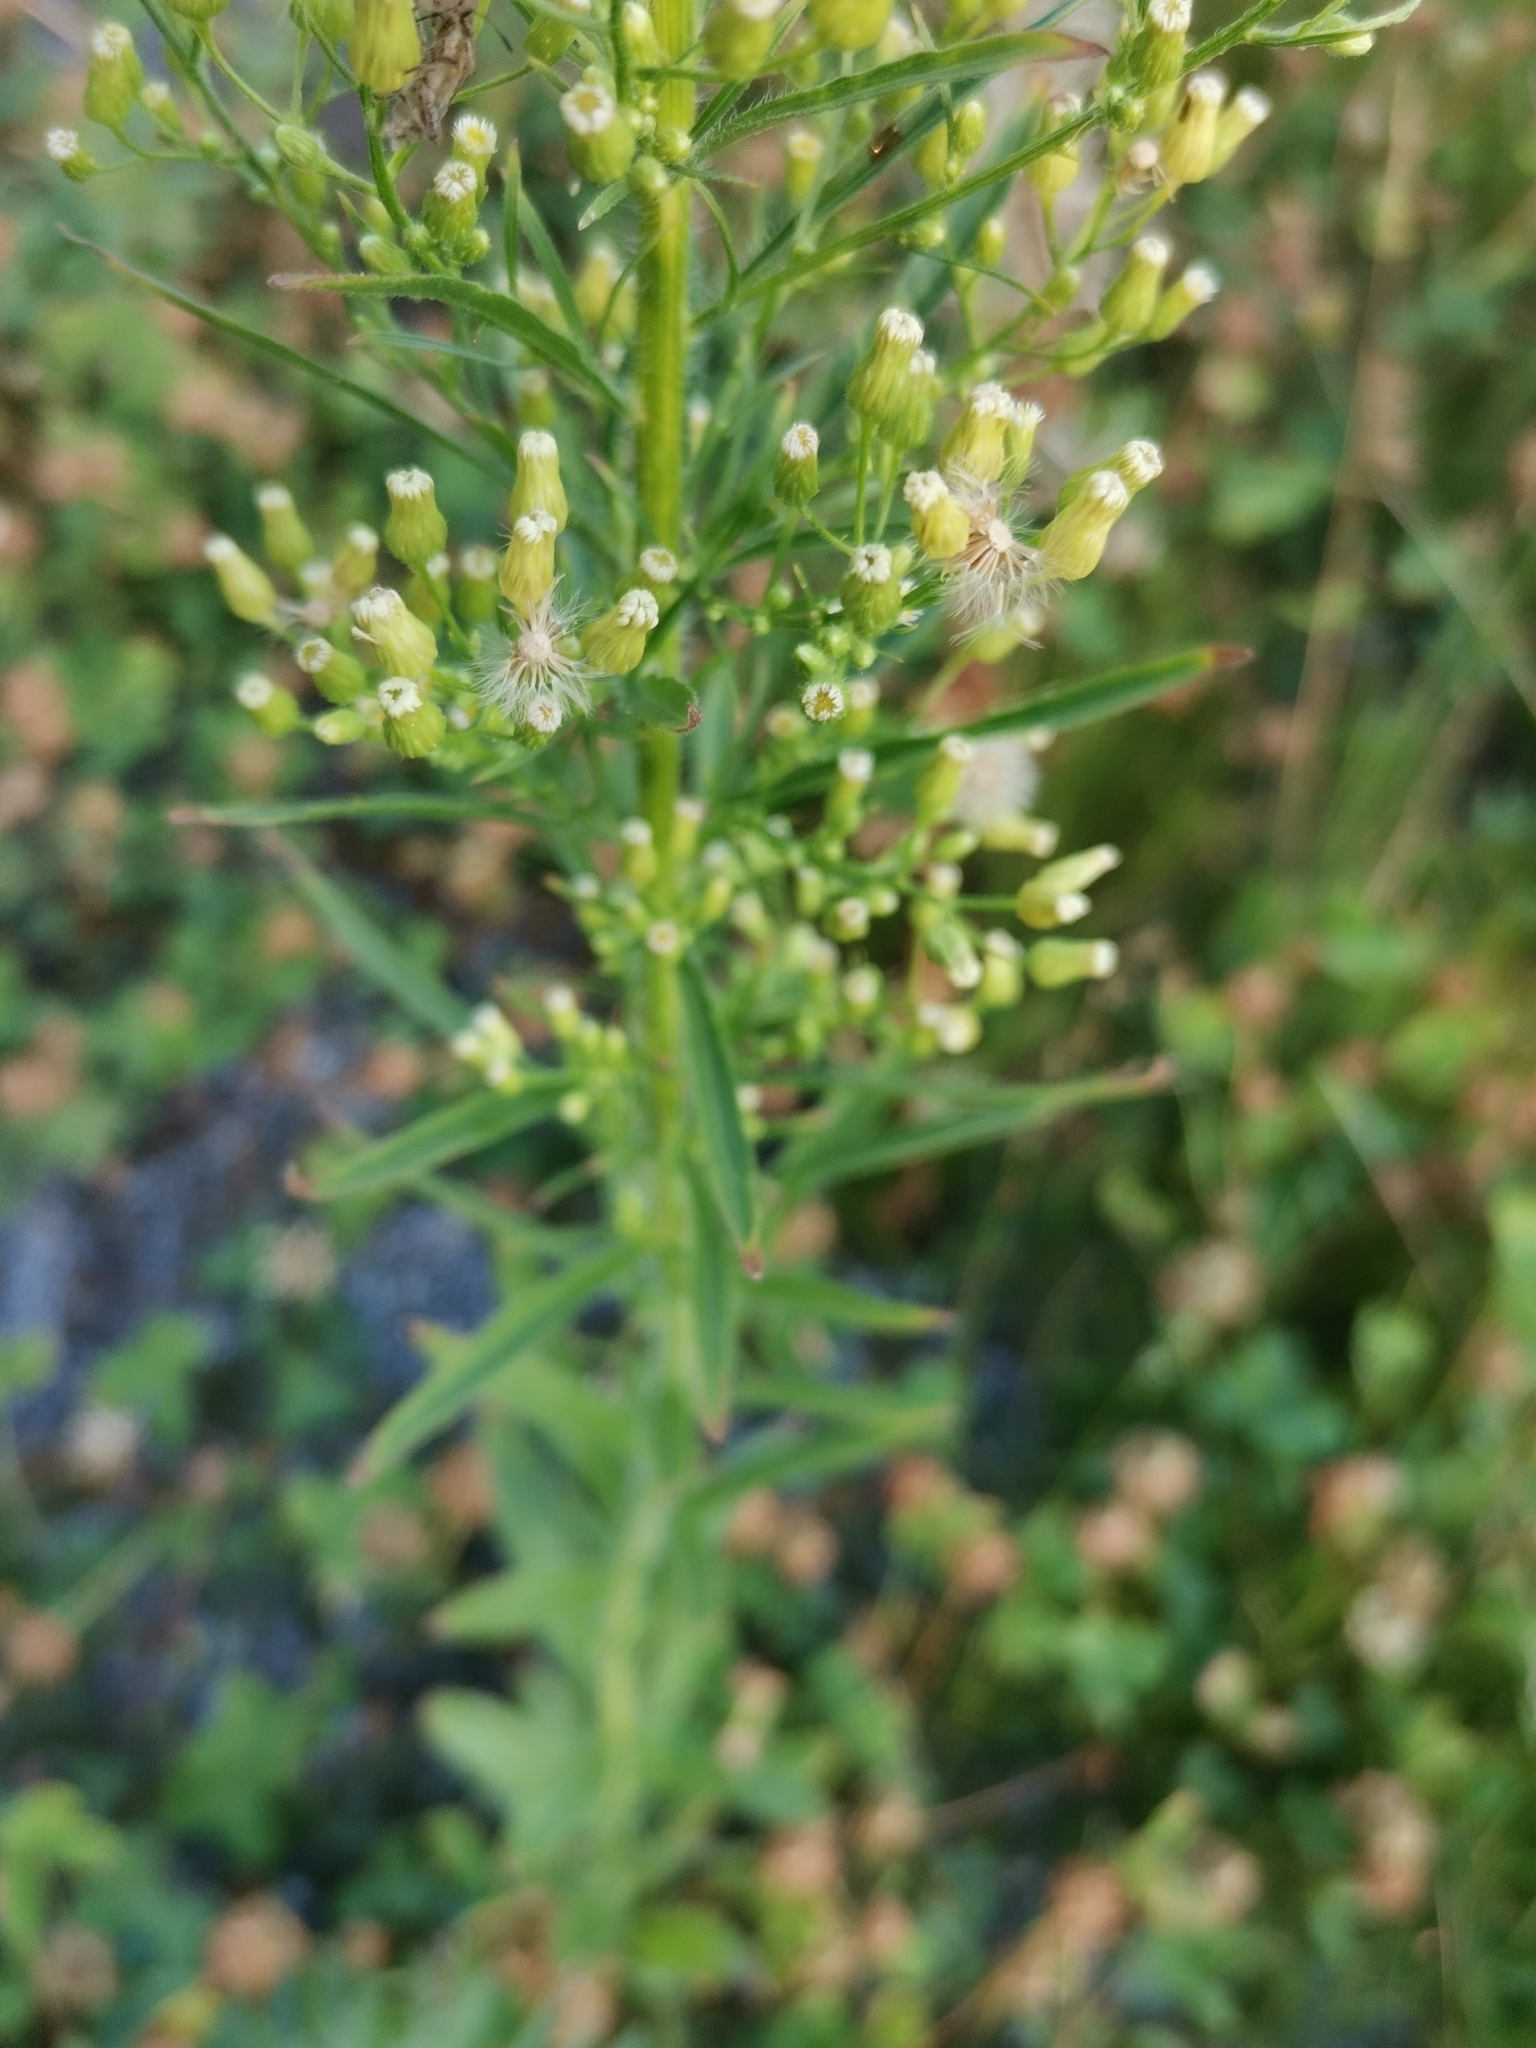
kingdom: Plantae
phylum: Tracheophyta
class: Magnoliopsida
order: Asterales
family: Asteraceae
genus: Erigeron
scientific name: Erigeron canadensis
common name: Canadian fleabane
